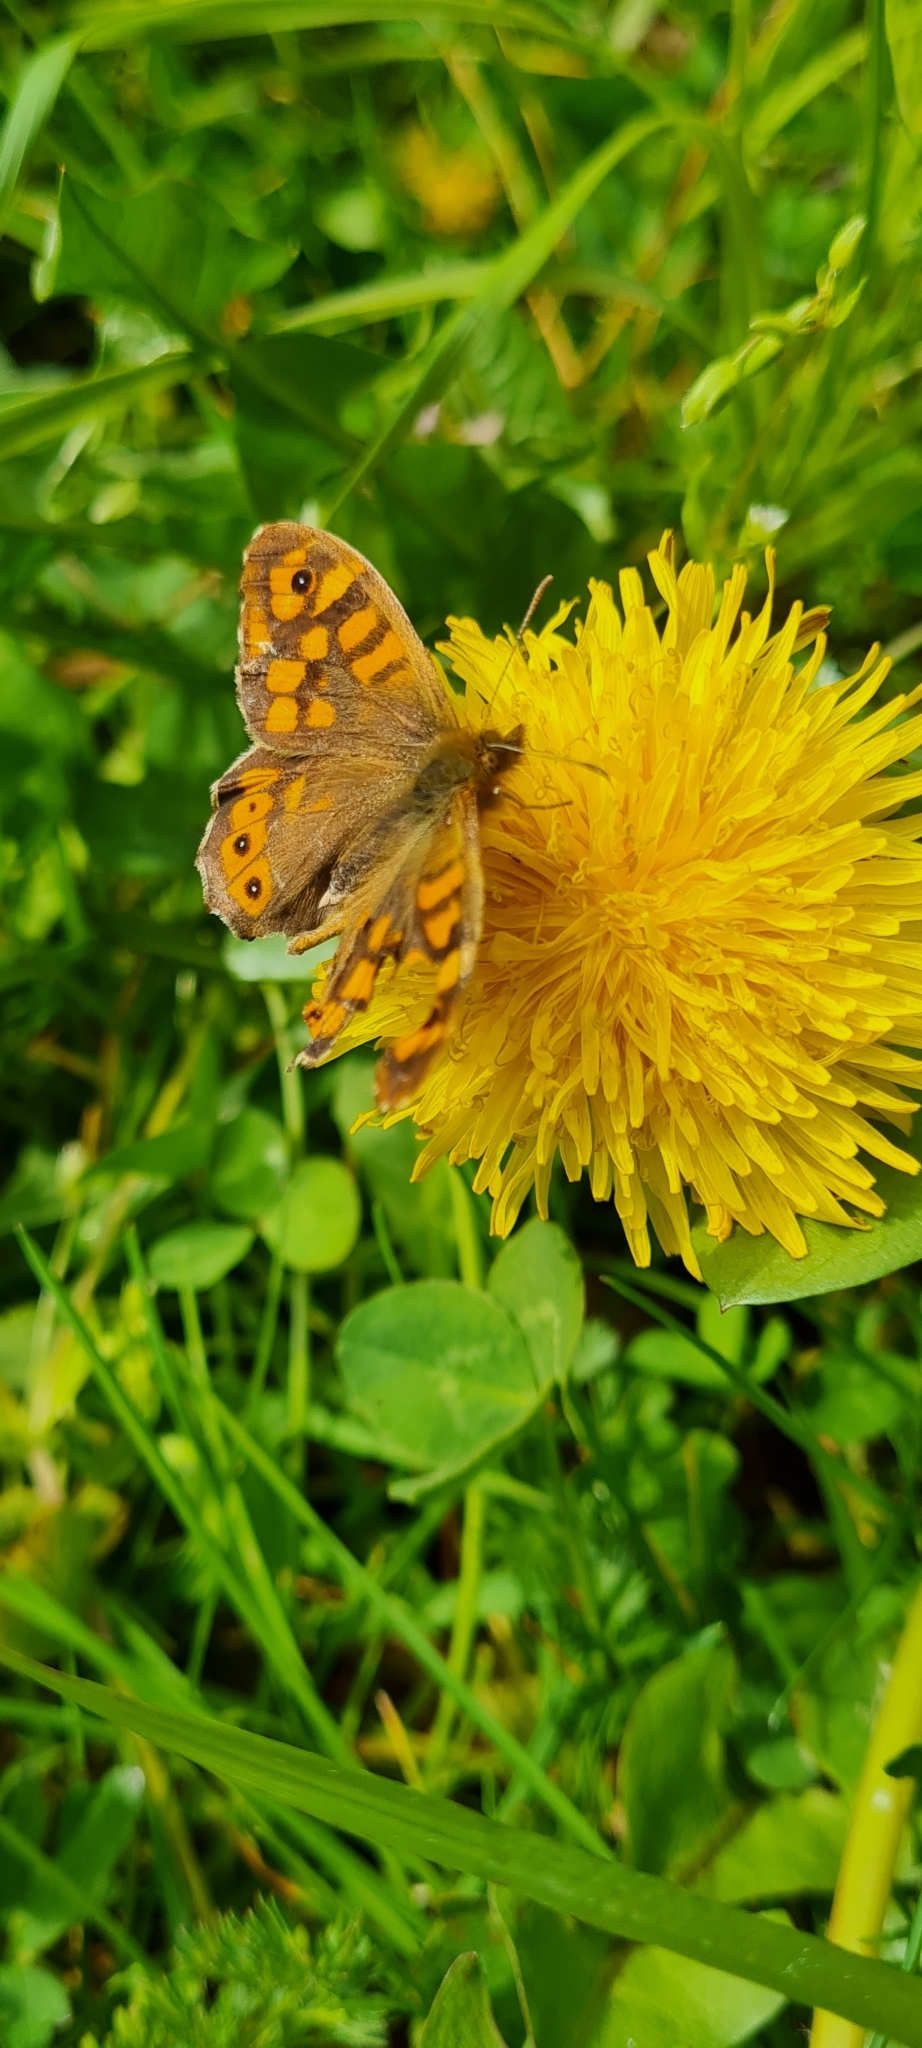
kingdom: Animalia
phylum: Arthropoda
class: Insecta
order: Lepidoptera
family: Nymphalidae
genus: Pararge
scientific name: Pararge aegeria
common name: Speckled wood
